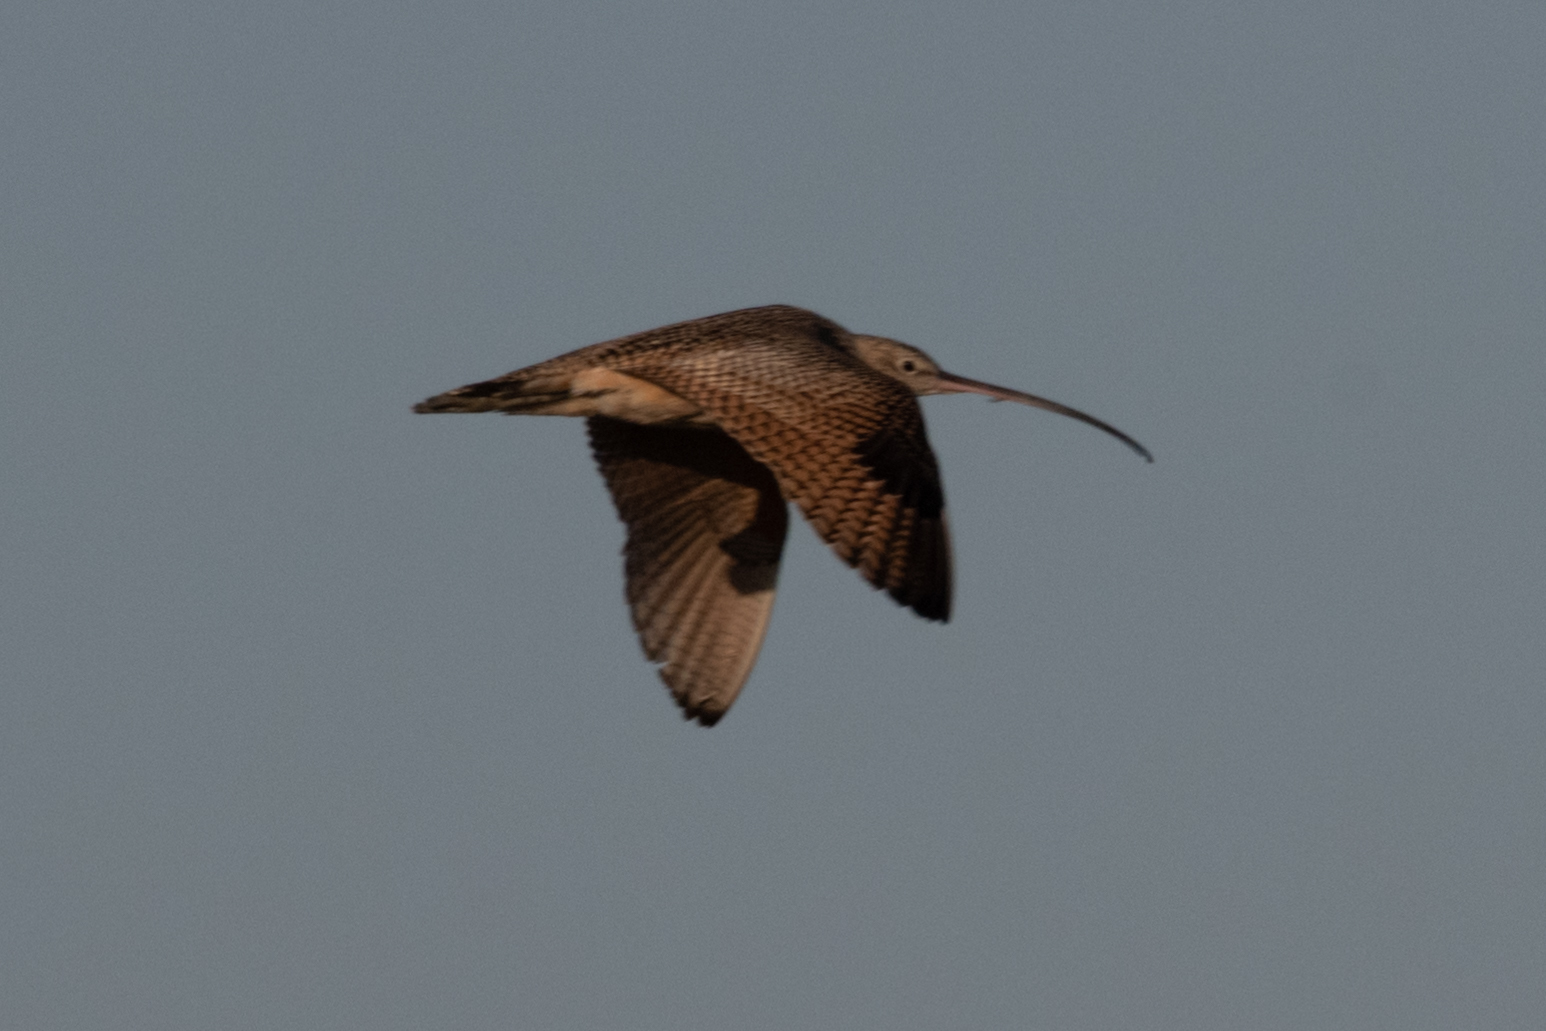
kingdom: Animalia
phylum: Chordata
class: Aves
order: Charadriiformes
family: Scolopacidae
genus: Numenius
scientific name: Numenius americanus
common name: Long-billed curlew
